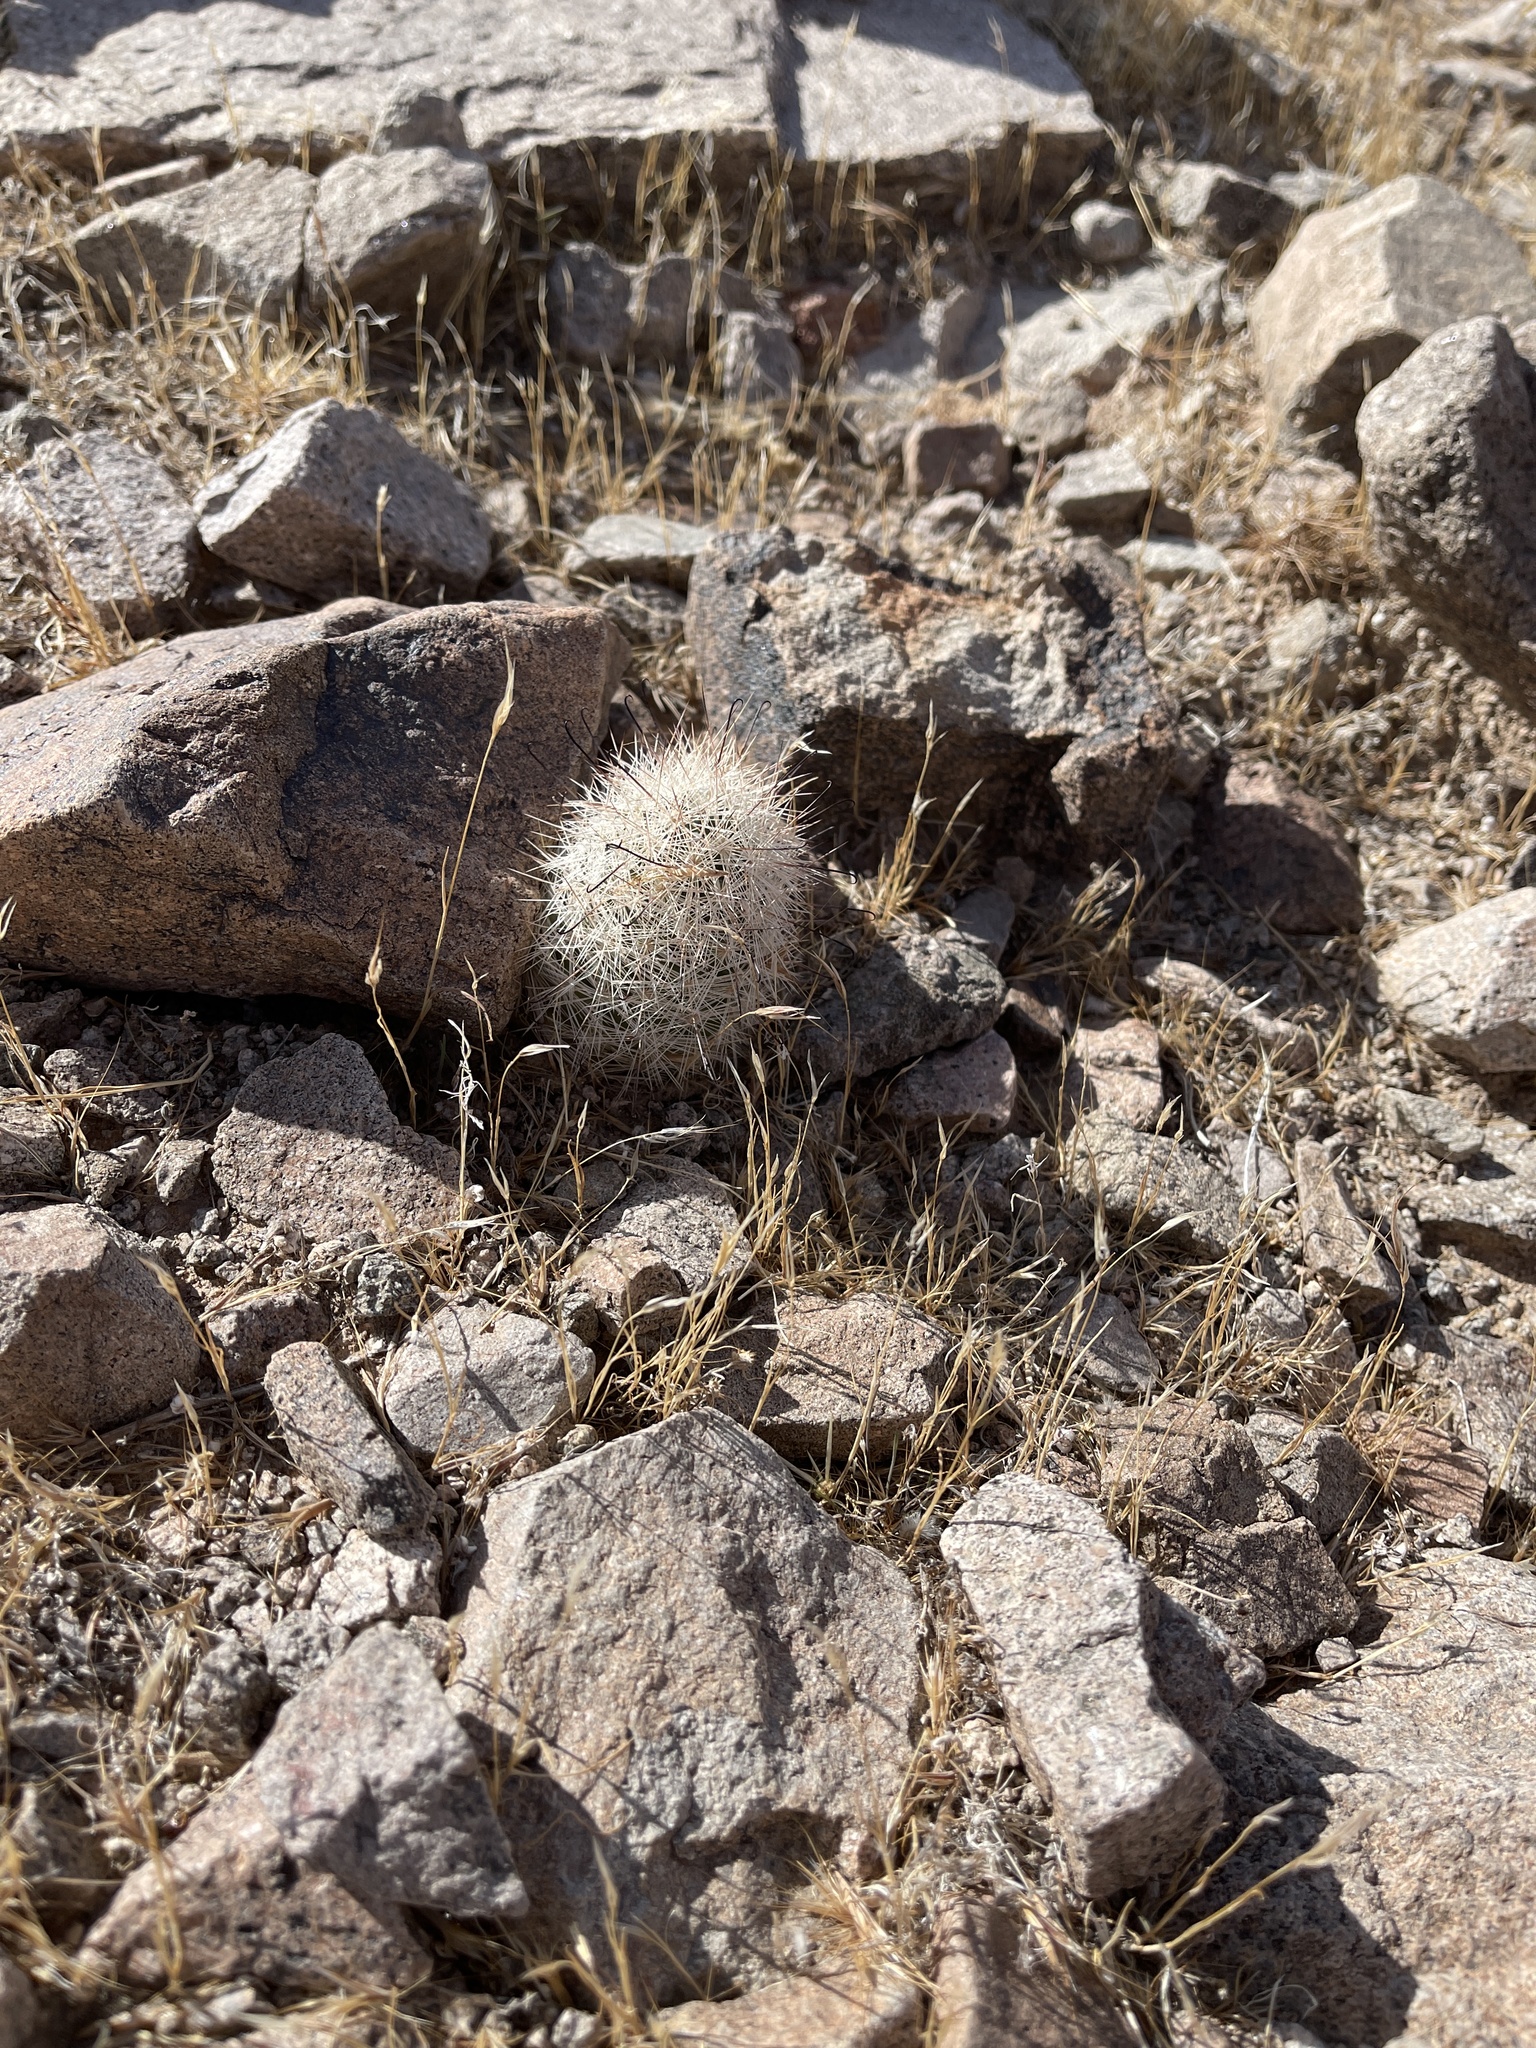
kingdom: Plantae
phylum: Tracheophyta
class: Magnoliopsida
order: Caryophyllales
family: Cactaceae
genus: Cochemiea
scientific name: Cochemiea tetrancistra
